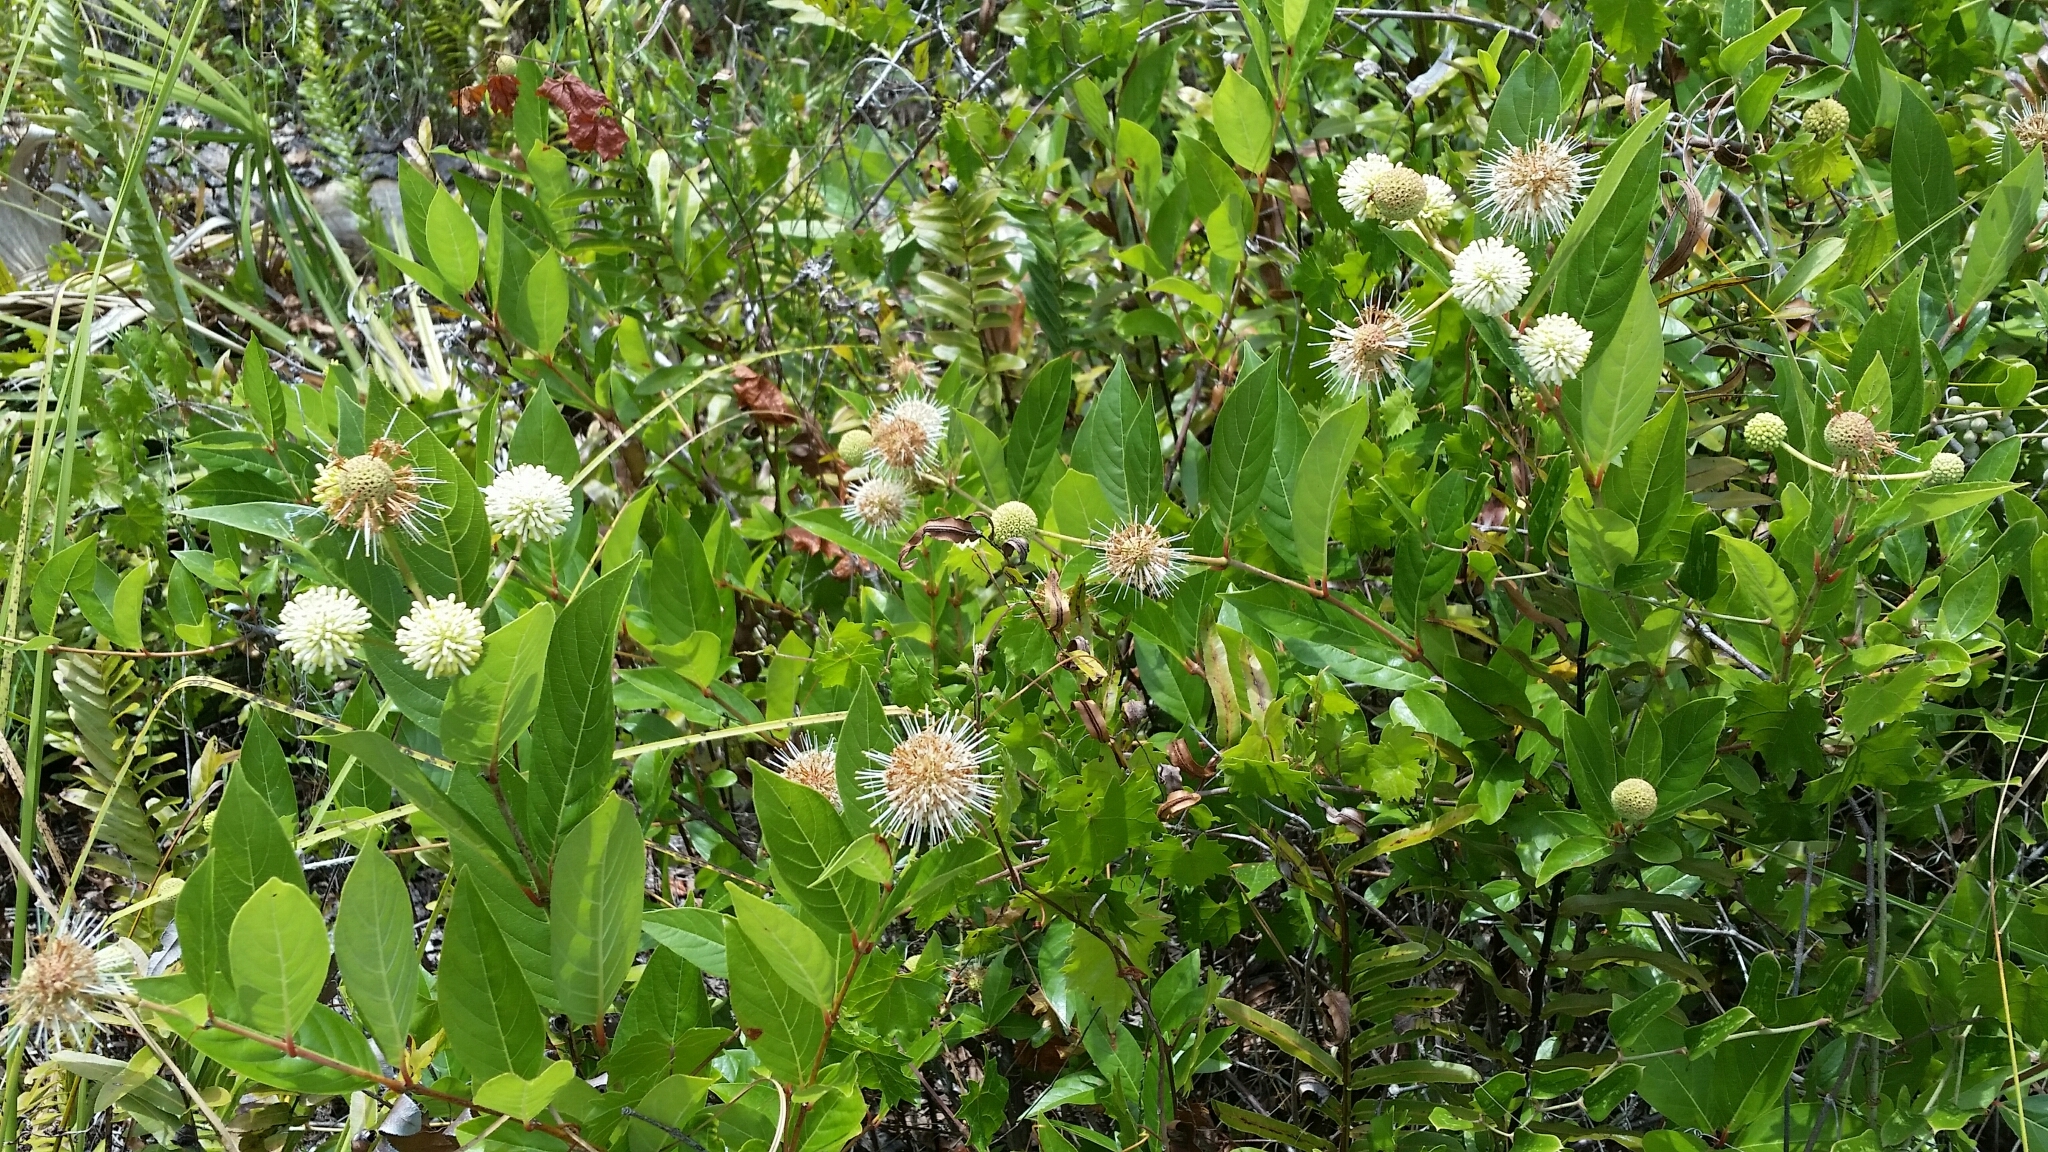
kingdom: Plantae
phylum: Tracheophyta
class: Magnoliopsida
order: Gentianales
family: Rubiaceae
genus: Cephalanthus
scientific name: Cephalanthus occidentalis
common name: Button-willow
